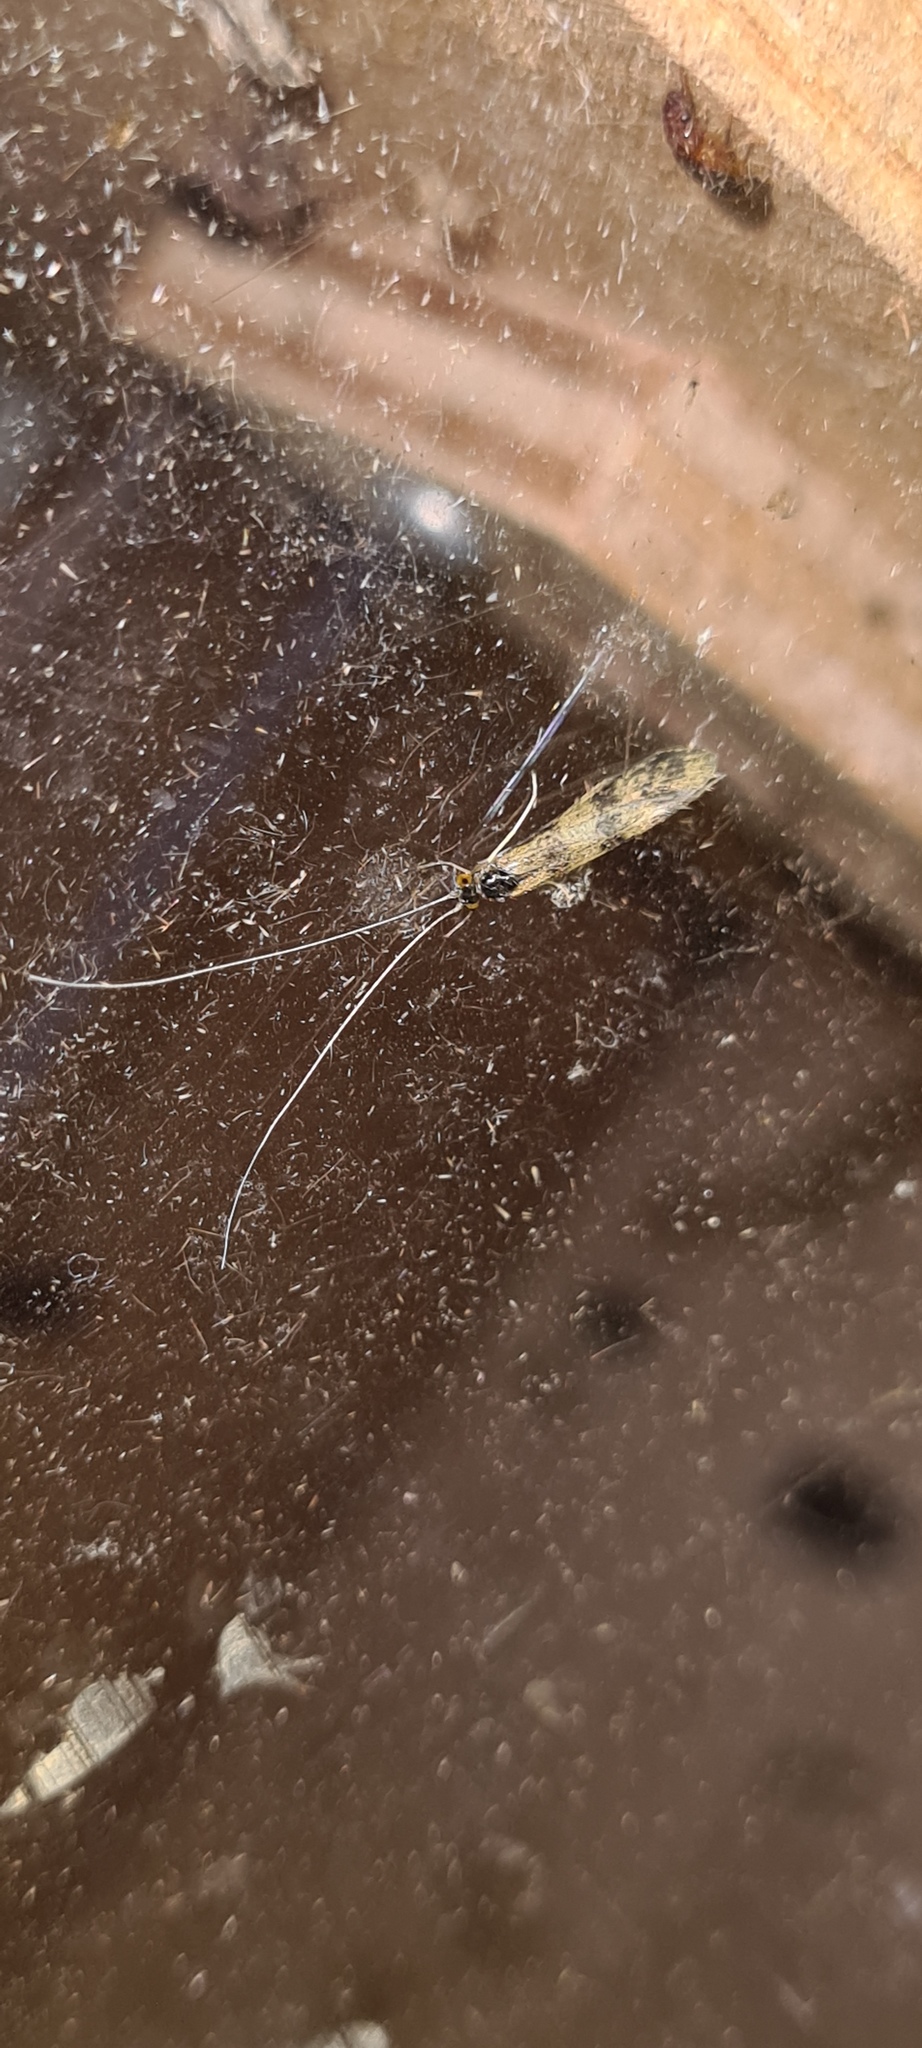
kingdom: Animalia
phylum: Arthropoda
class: Insecta
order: Trichoptera
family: Leptoceridae
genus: Mystacides
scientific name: Mystacides longicornis
